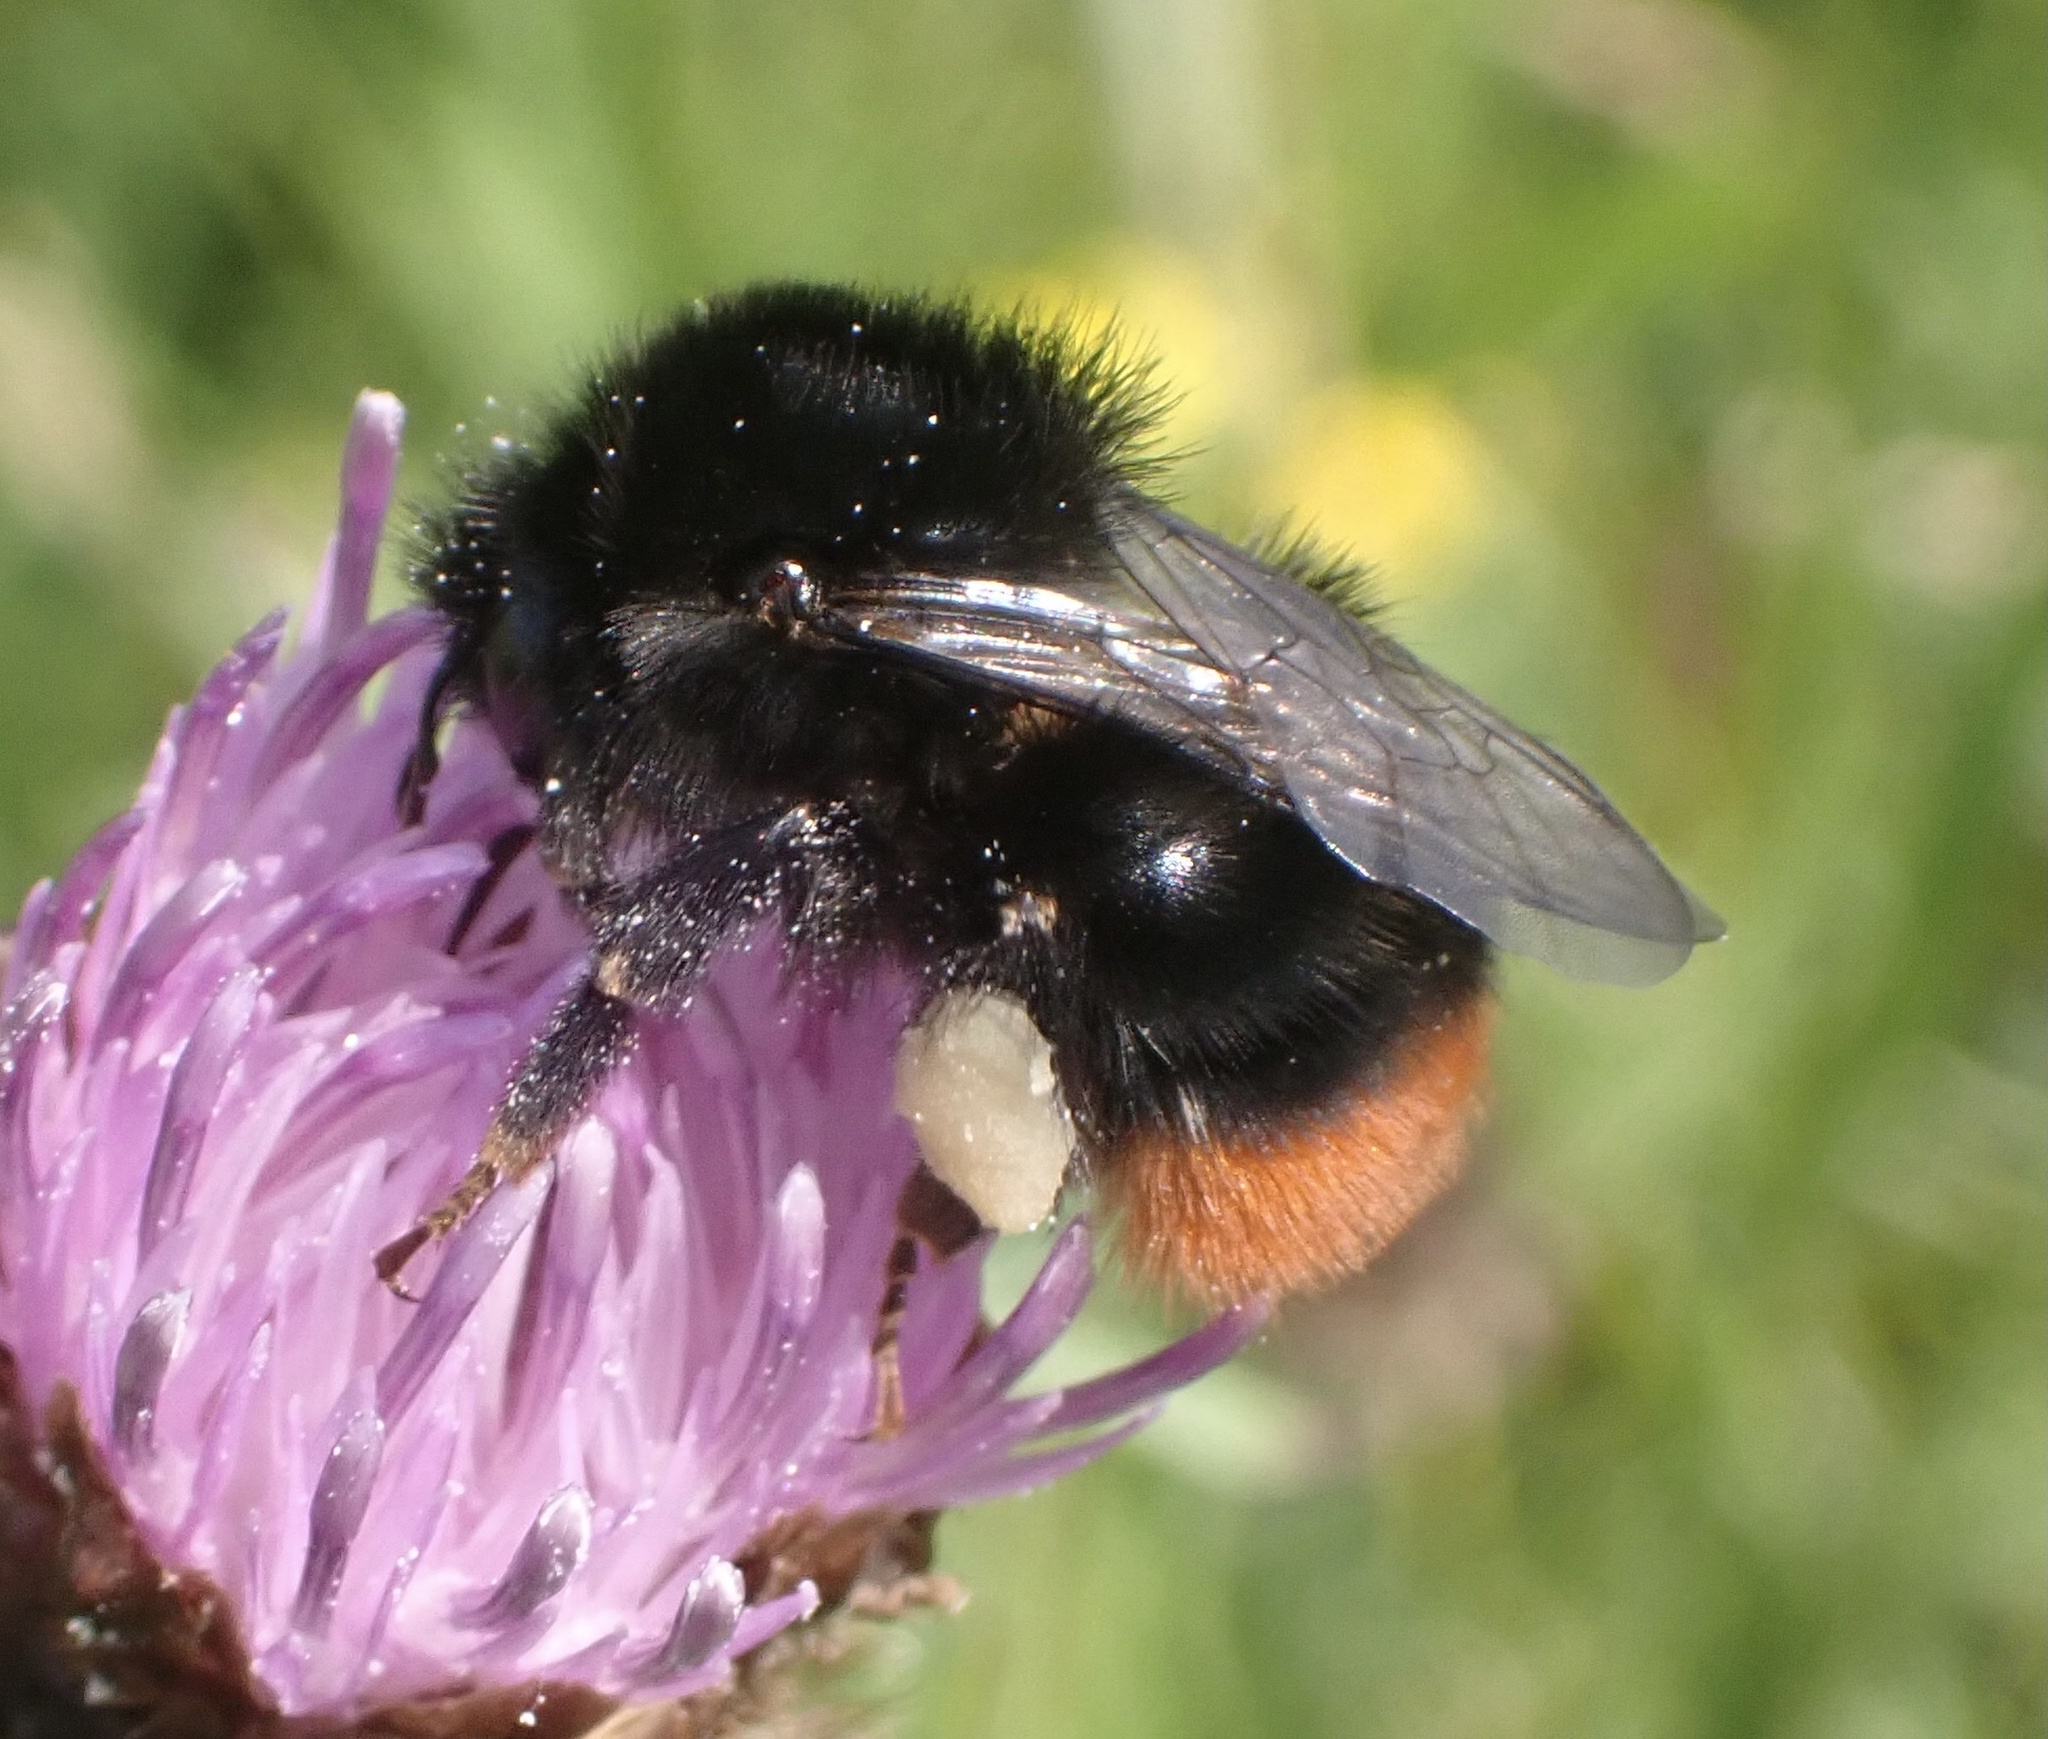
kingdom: Animalia
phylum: Arthropoda
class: Insecta
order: Hymenoptera
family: Apidae
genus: Bombus
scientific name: Bombus lapidarius
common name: Large red-tailed humble-bee
